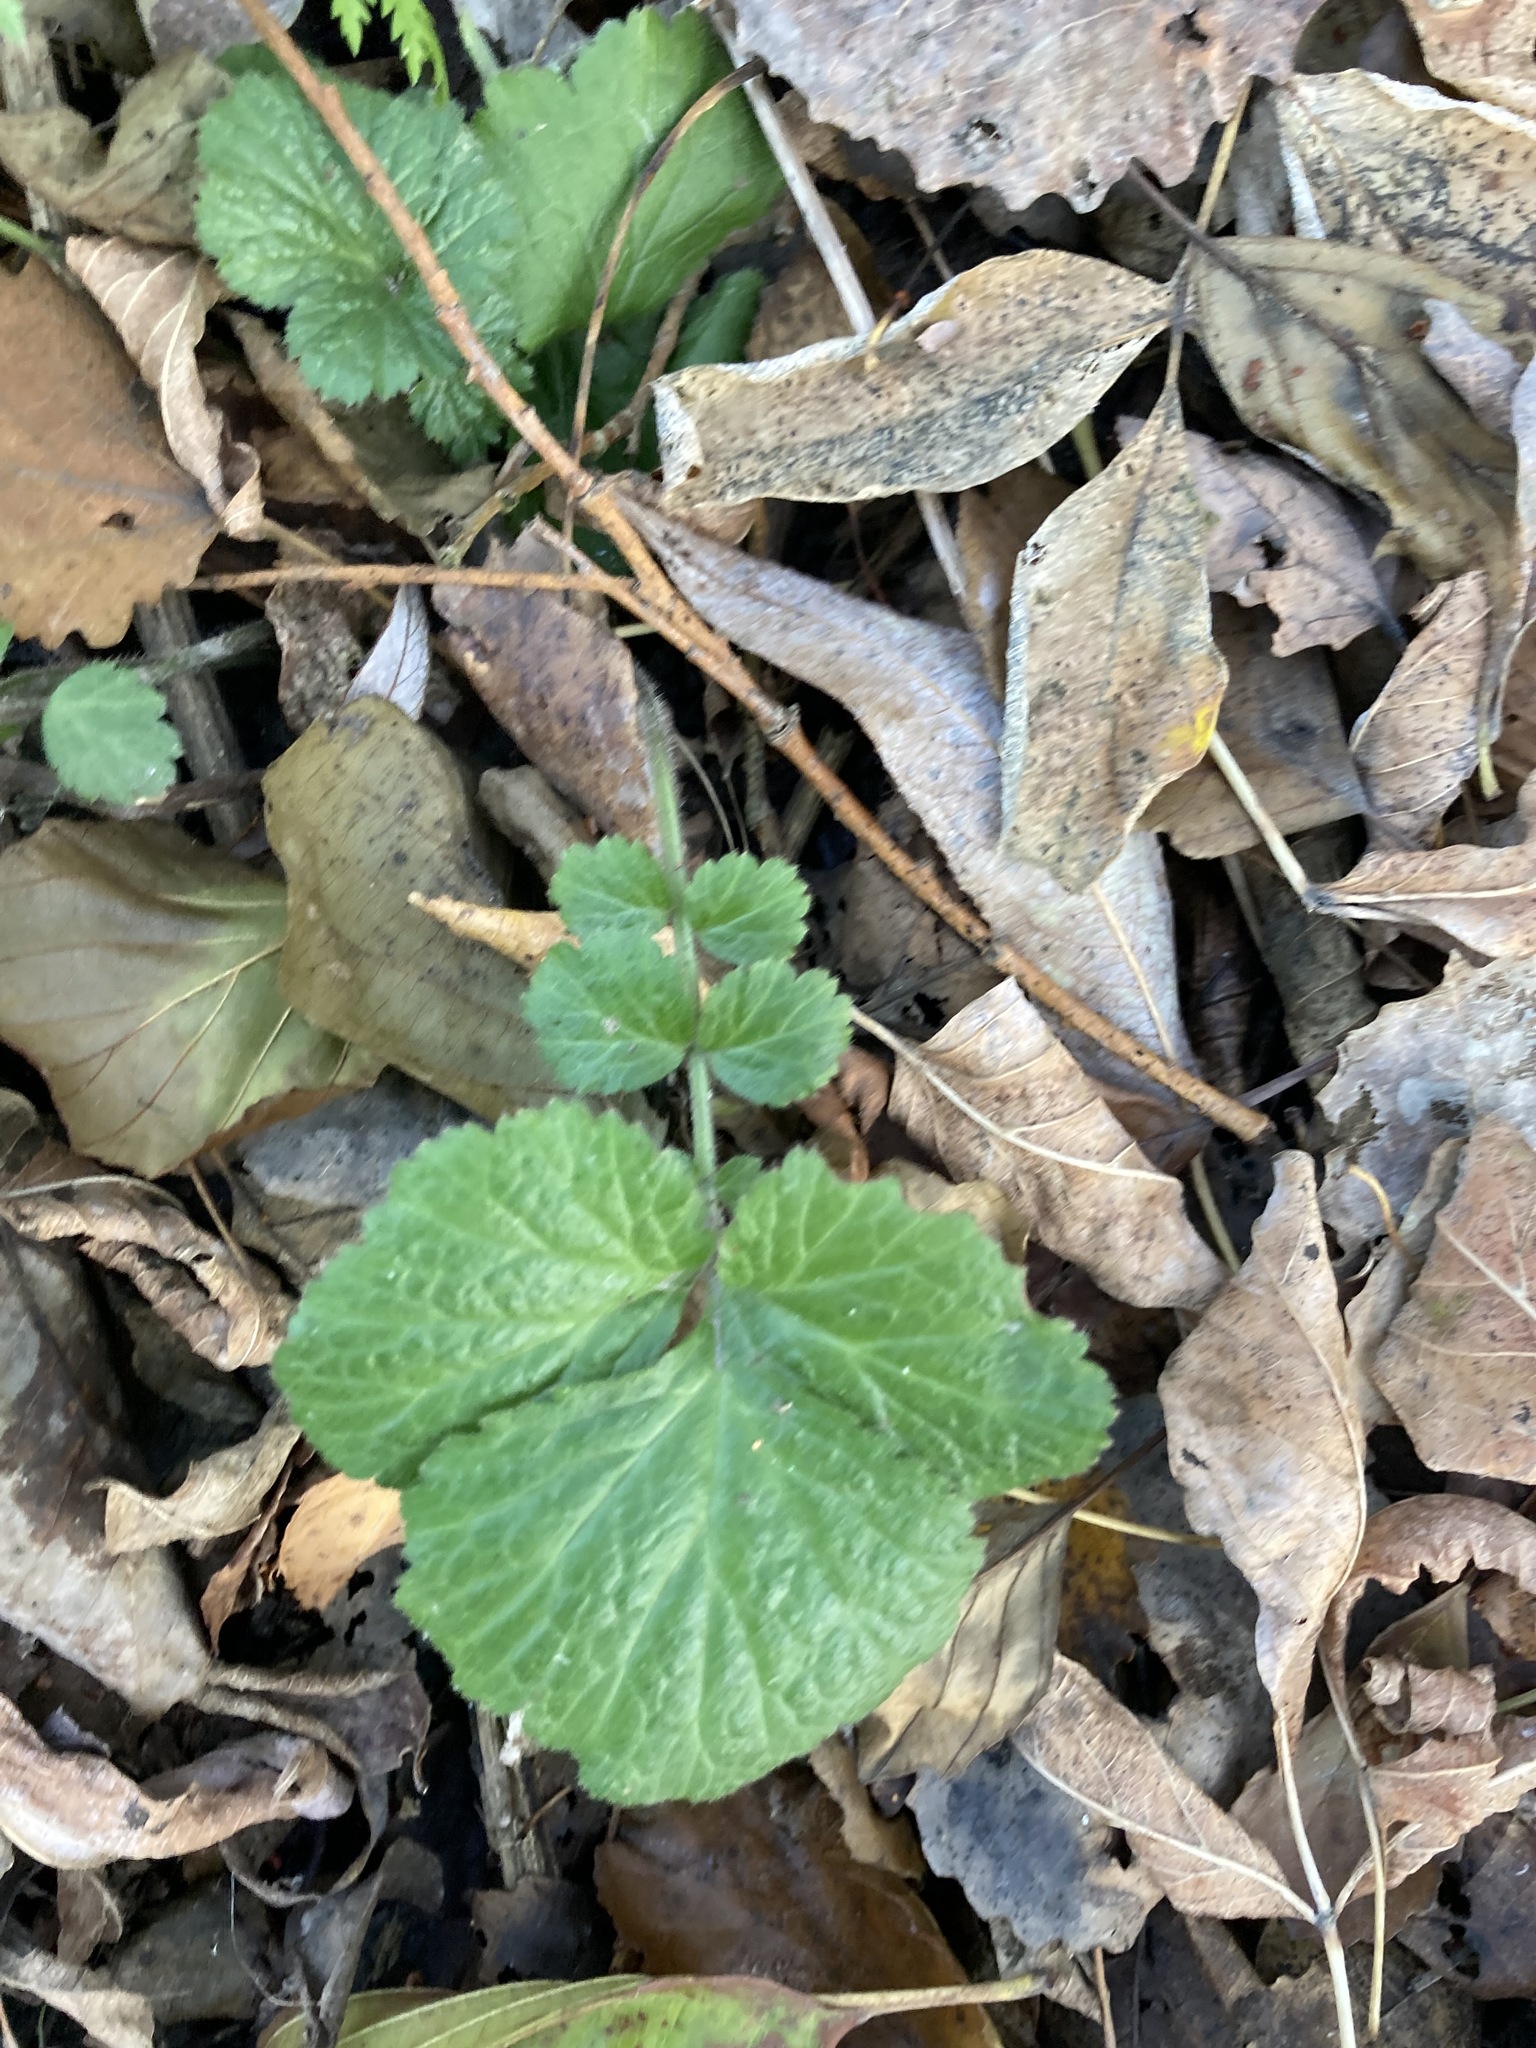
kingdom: Plantae
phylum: Tracheophyta
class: Magnoliopsida
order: Rosales
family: Rosaceae
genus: Geum
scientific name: Geum
